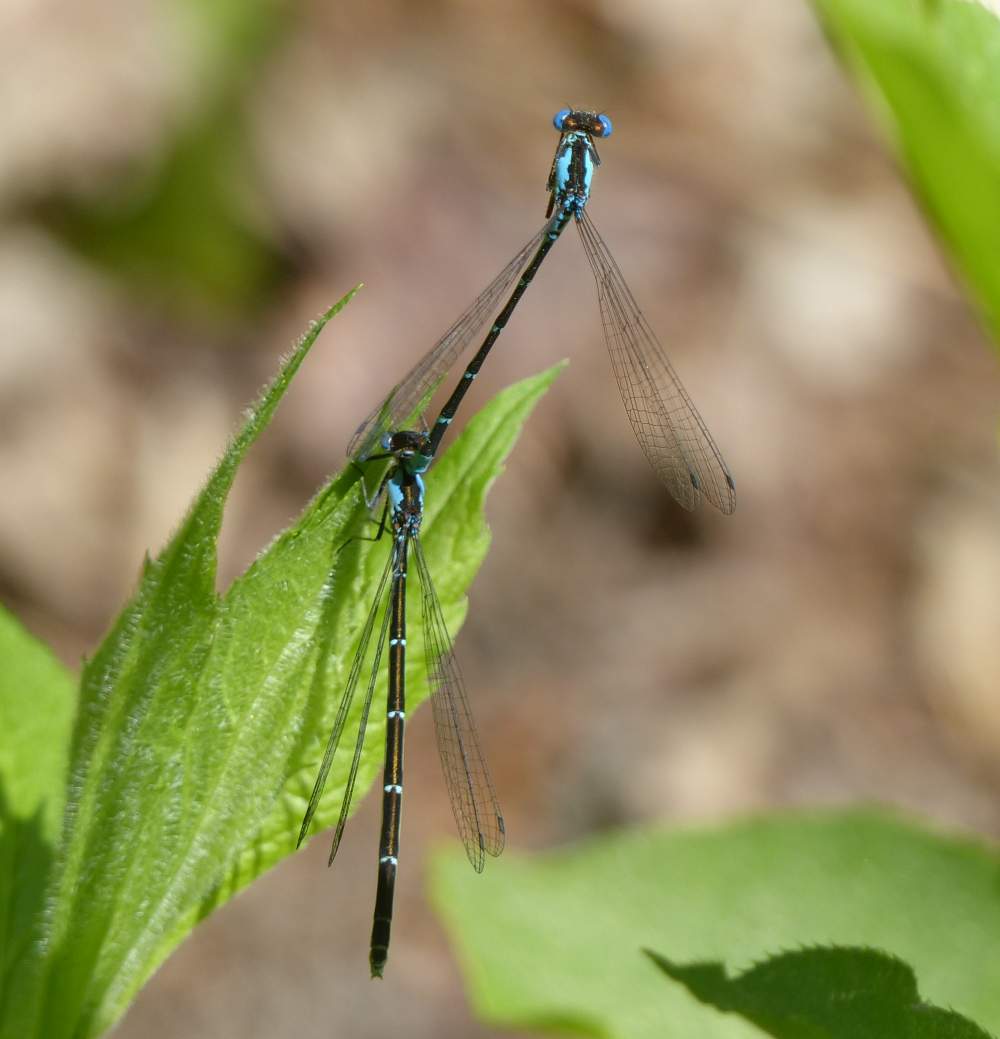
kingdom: Animalia
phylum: Arthropoda
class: Insecta
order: Odonata
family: Coenagrionidae
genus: Chromagrion
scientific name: Chromagrion conditum
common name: Aurora damsel
